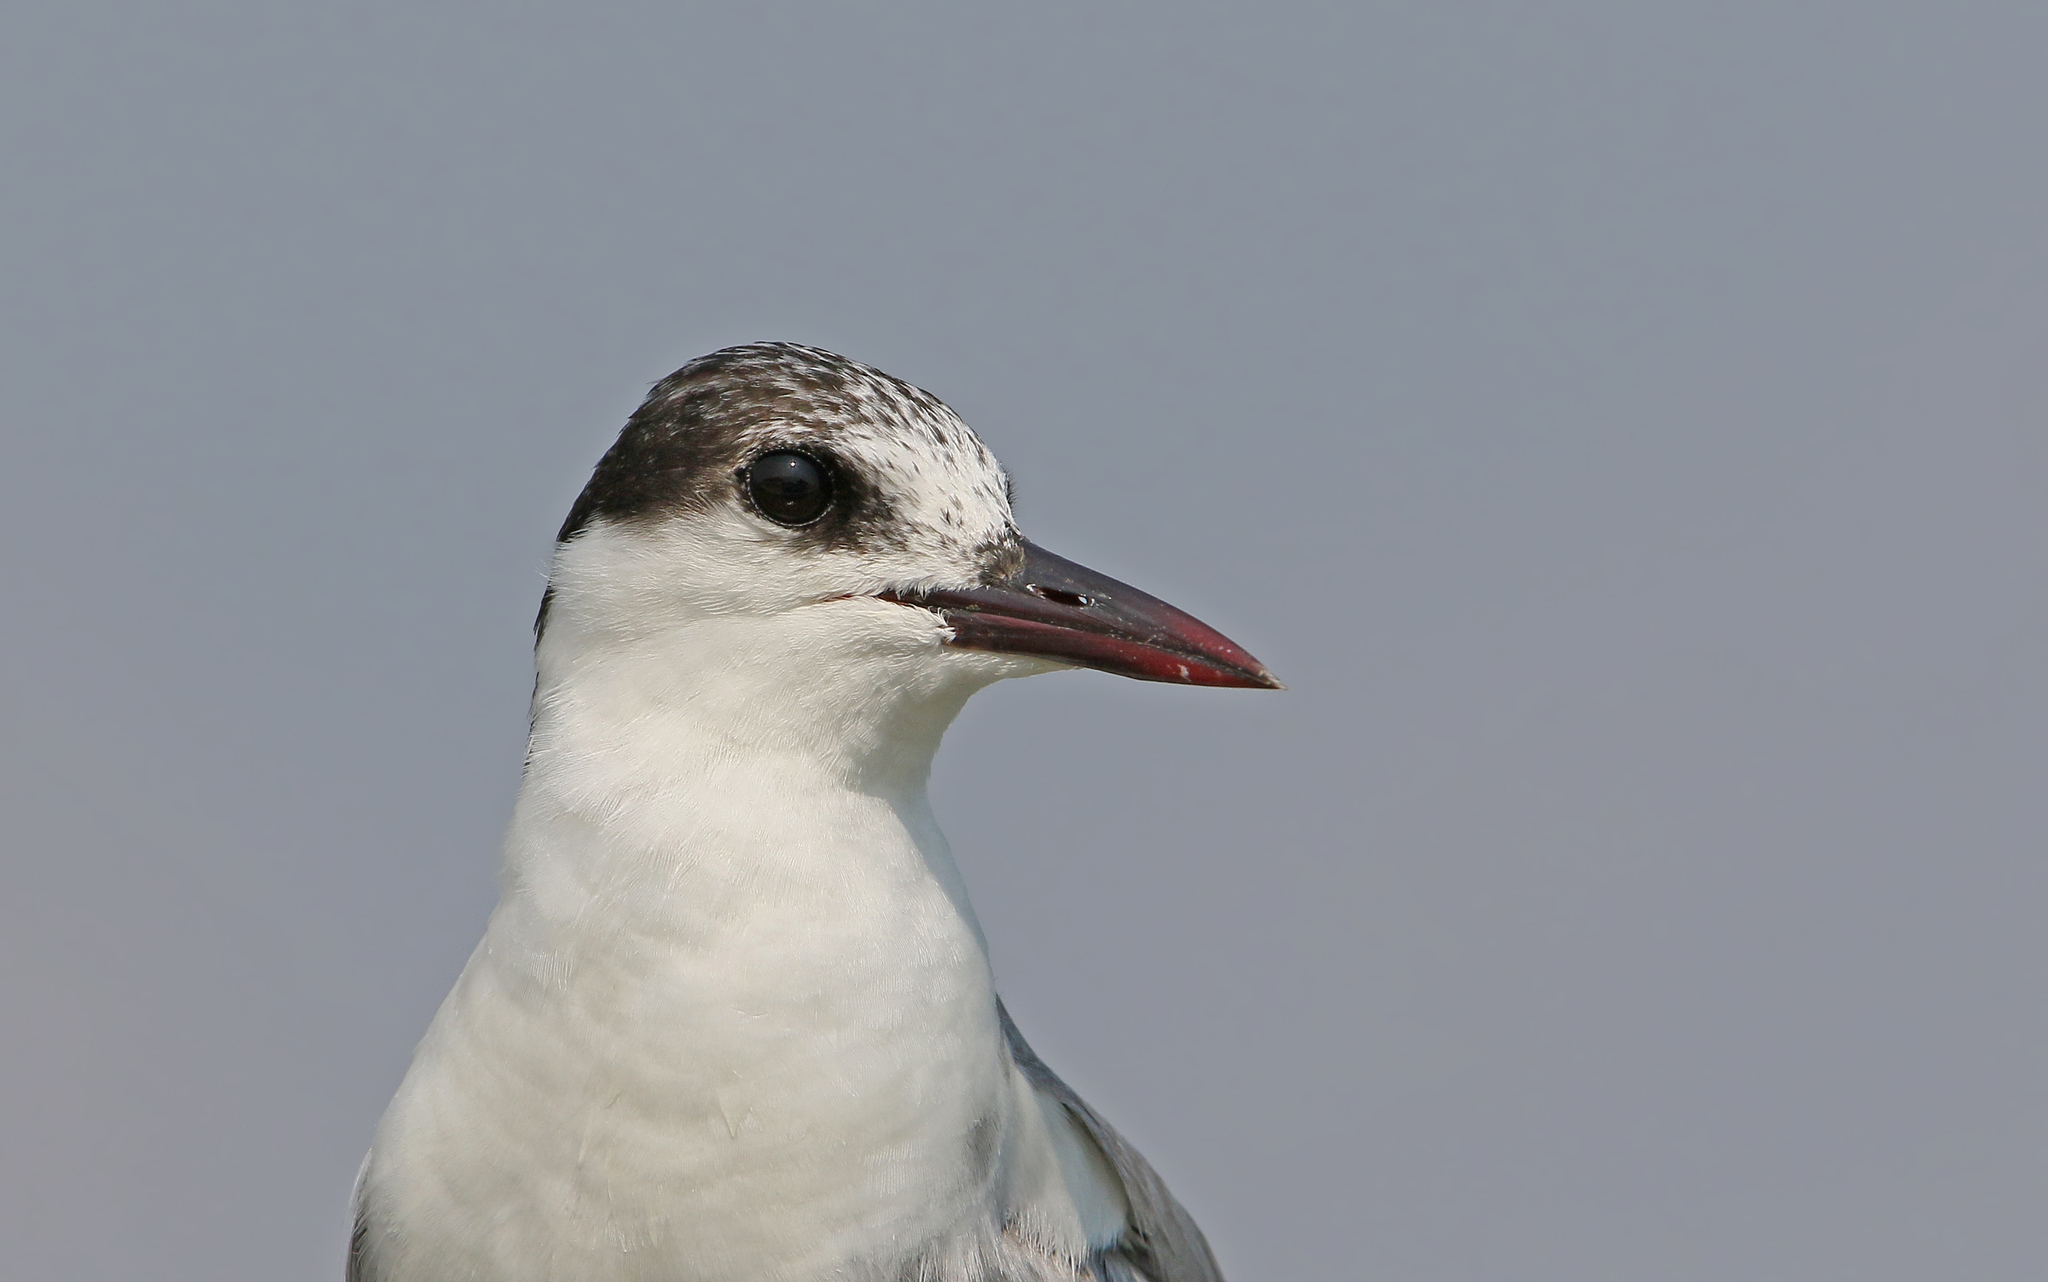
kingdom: Animalia
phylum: Chordata
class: Aves
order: Charadriiformes
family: Laridae
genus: Chlidonias
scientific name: Chlidonias hybrida
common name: Whiskered tern
